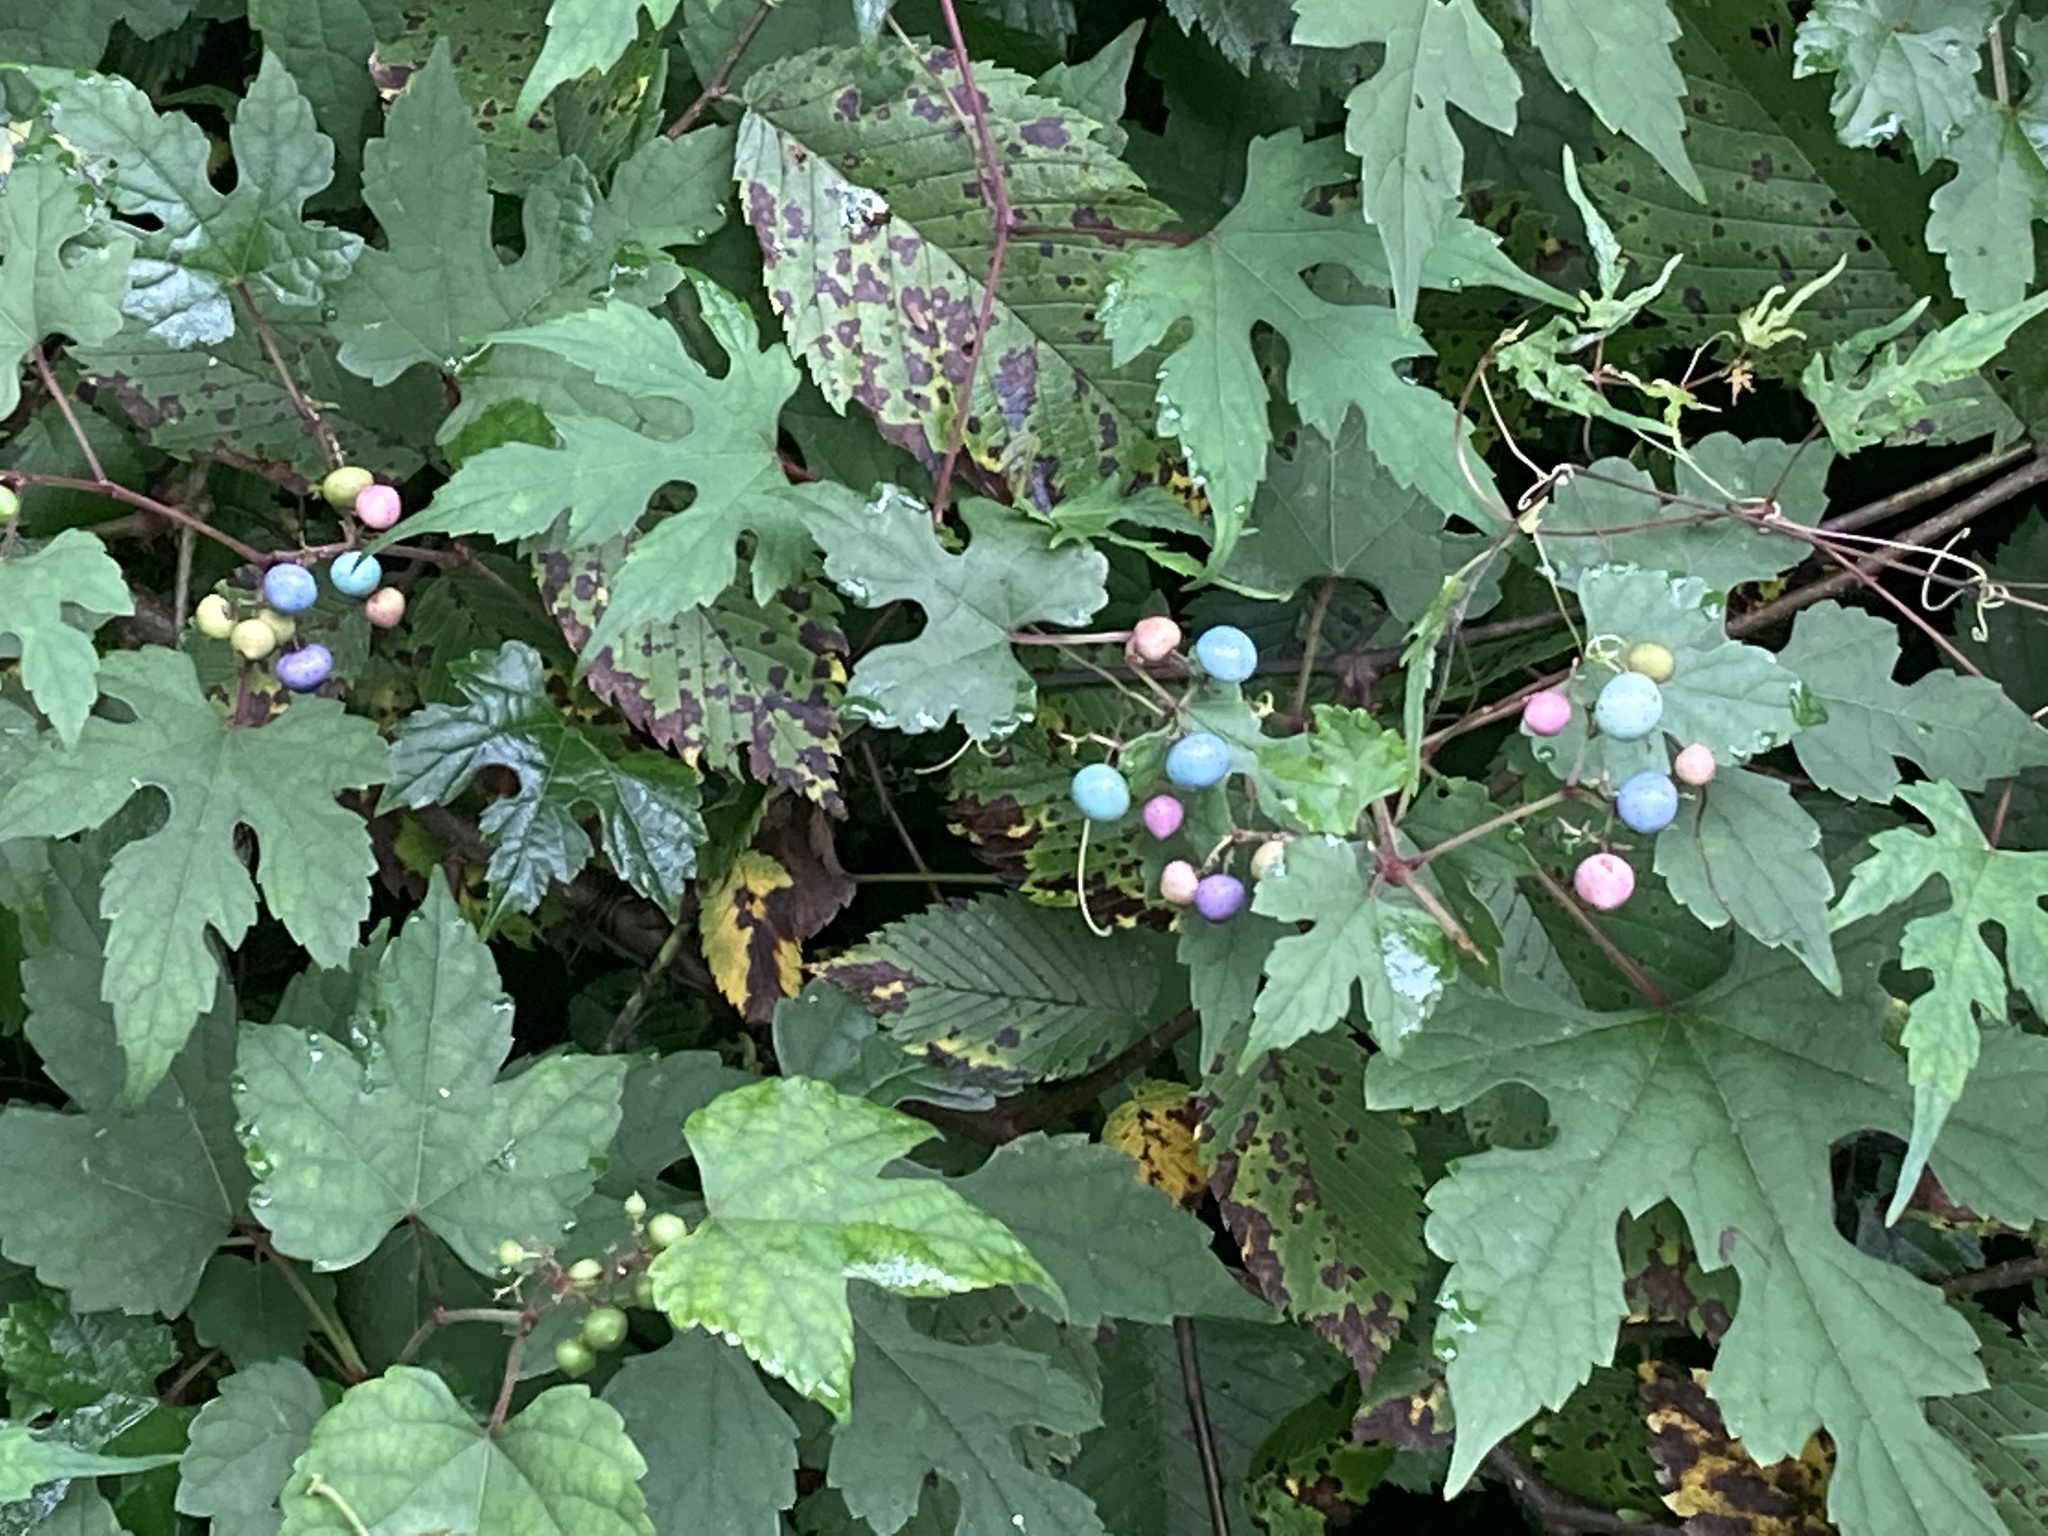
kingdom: Plantae
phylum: Tracheophyta
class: Magnoliopsida
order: Vitales
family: Vitaceae
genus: Ampelopsis
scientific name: Ampelopsis glandulosa
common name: Amur peppervine
